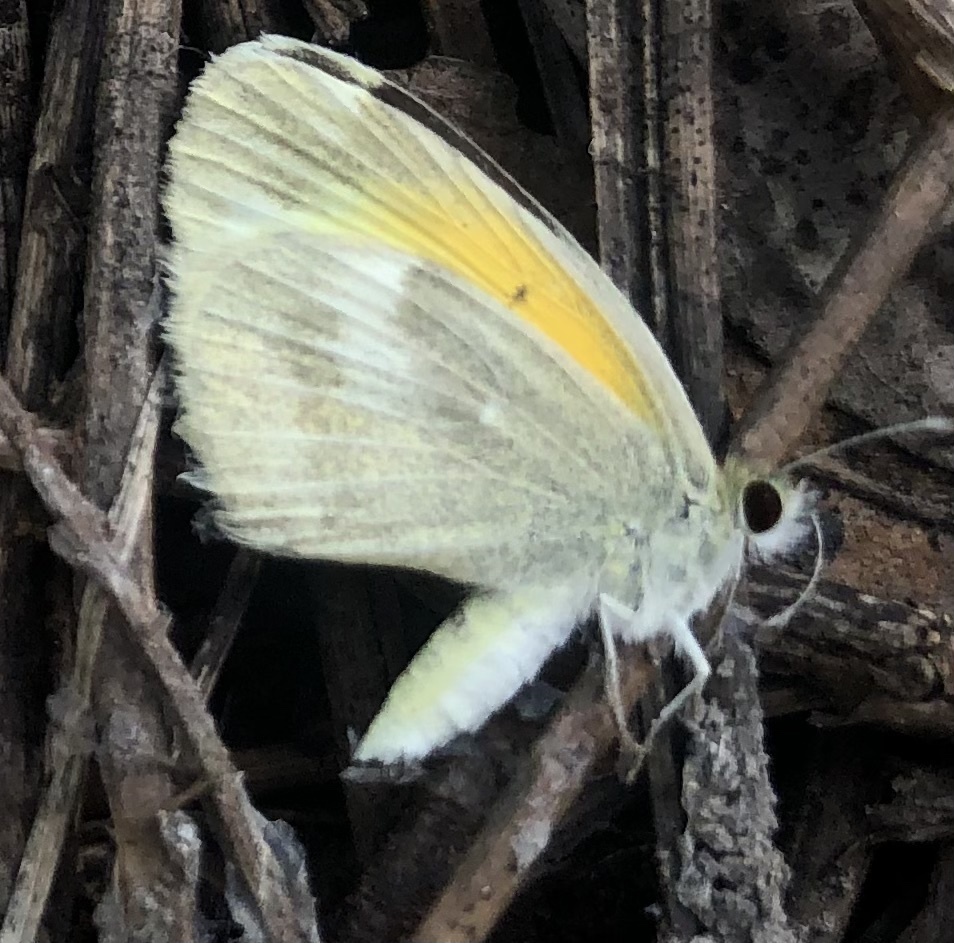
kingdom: Animalia
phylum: Arthropoda
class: Insecta
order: Lepidoptera
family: Pieridae
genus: Nathalis
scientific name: Nathalis iole
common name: Dainty sulphur
